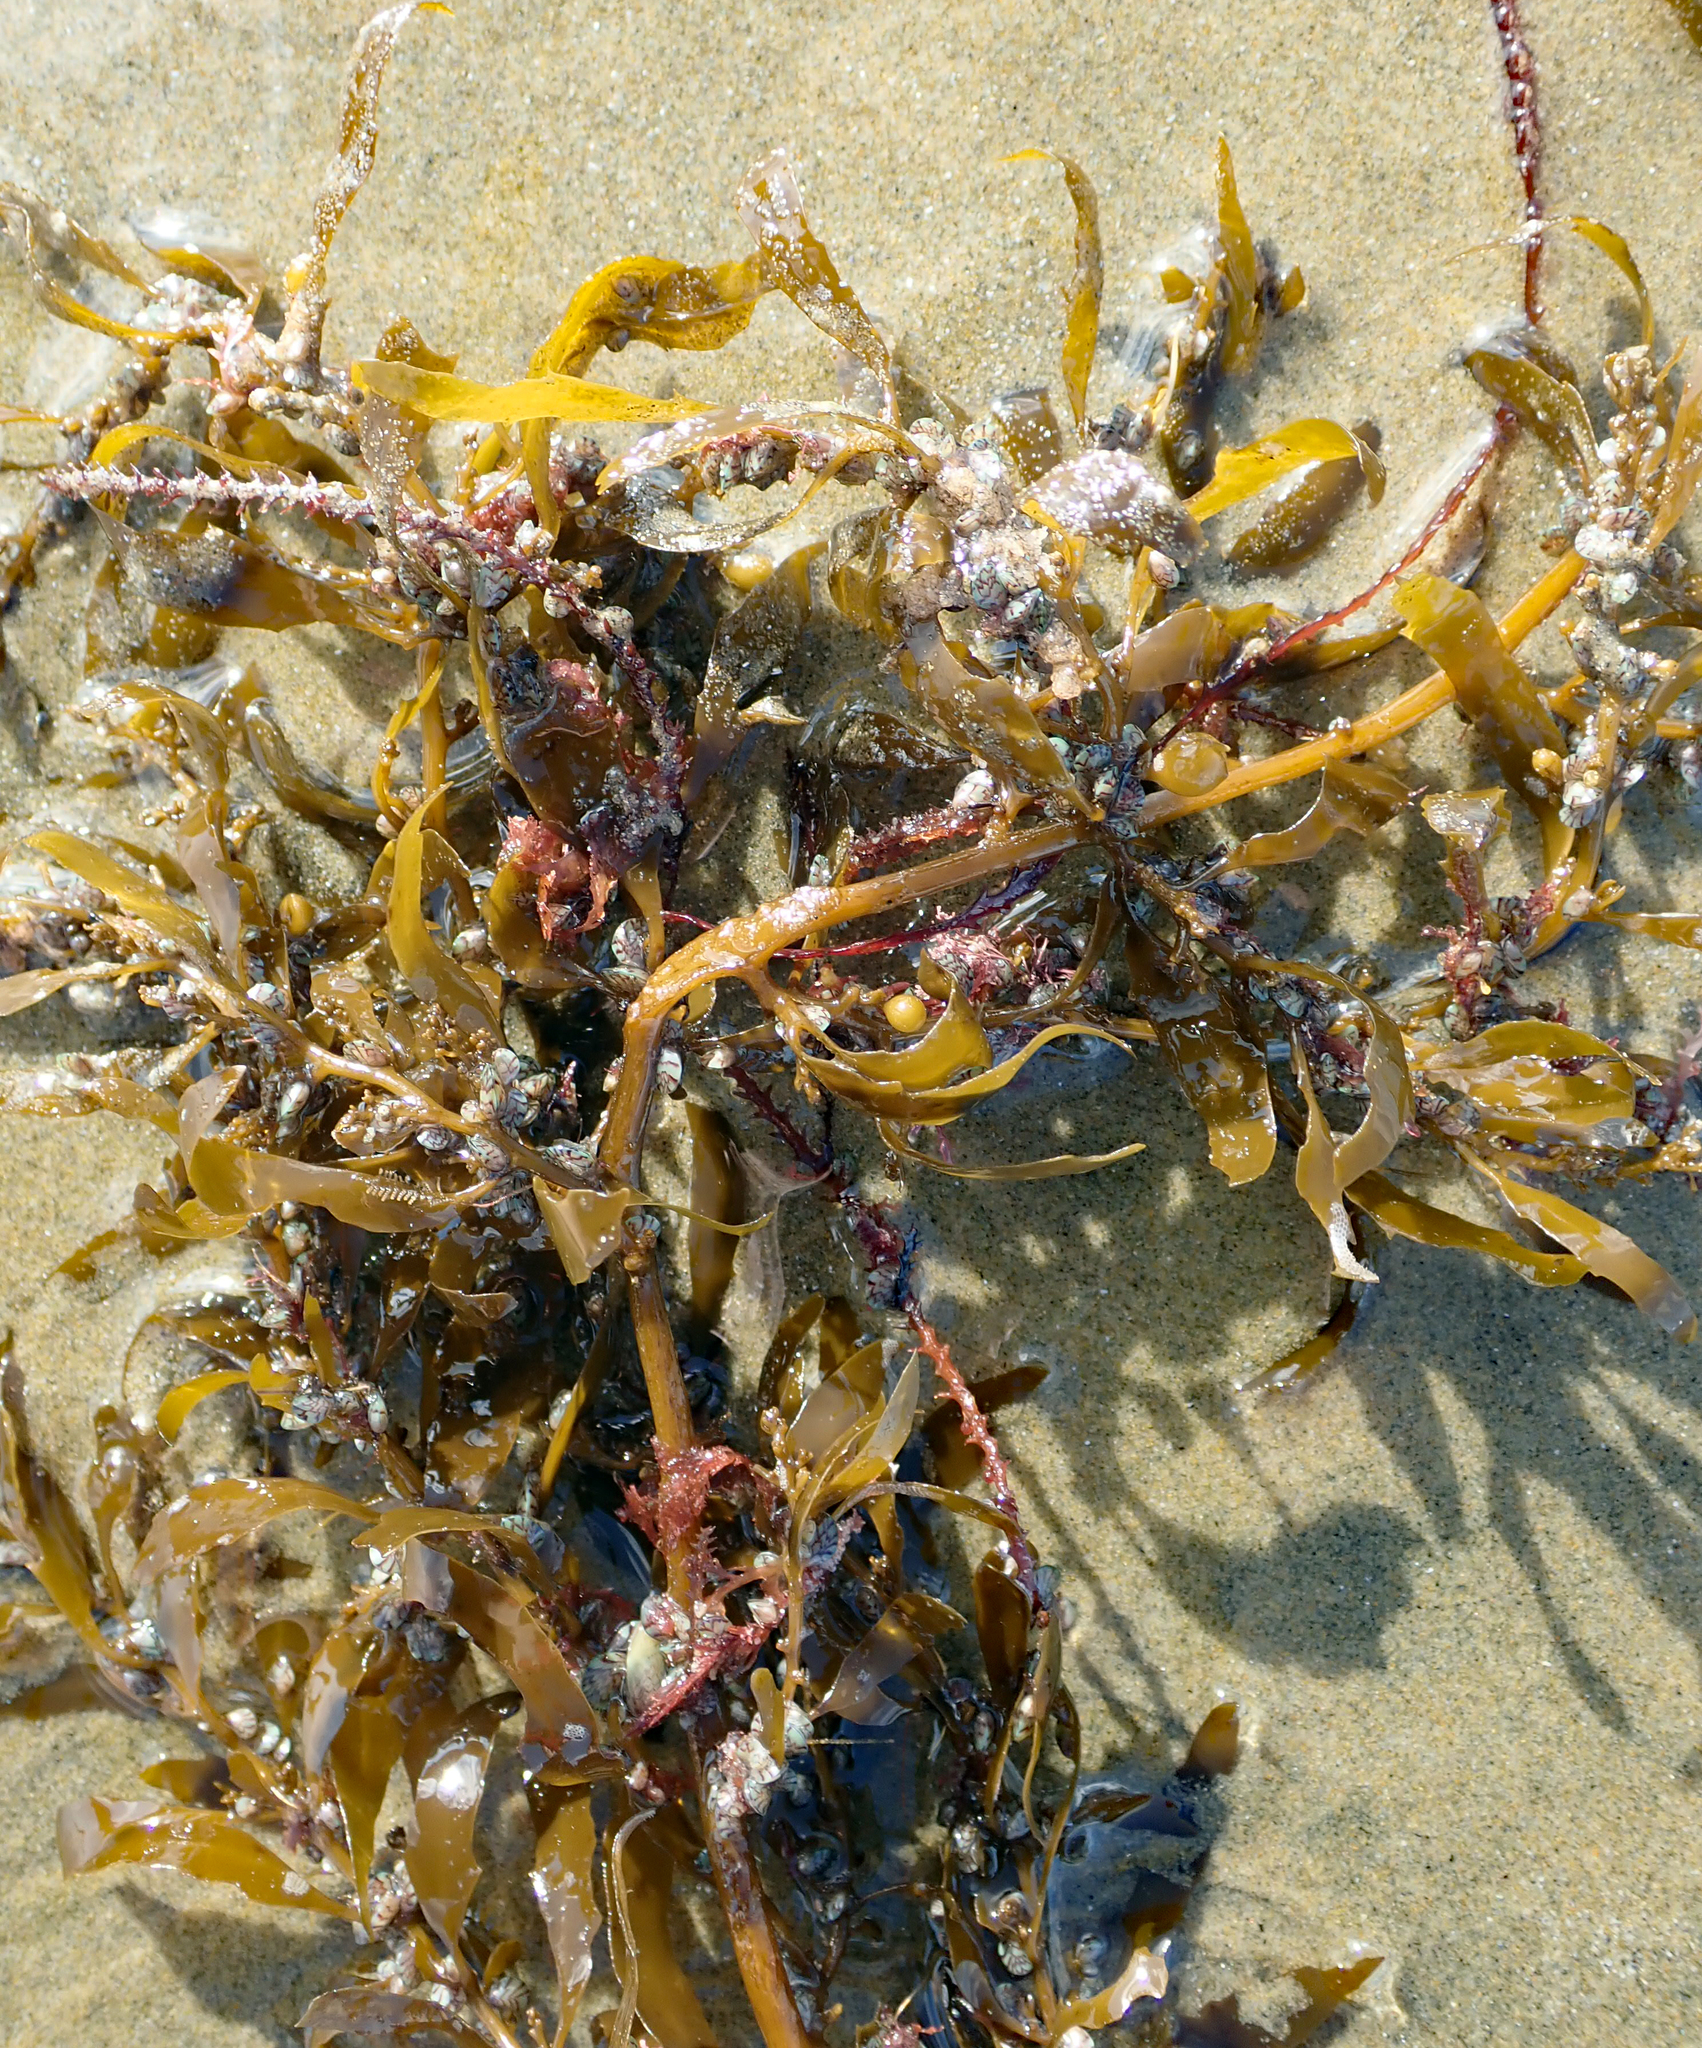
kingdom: Chromista
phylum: Ochrophyta
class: Phaeophyceae
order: Fucales
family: Sargassaceae
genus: Sargassum
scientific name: Sargassum sinclairii
